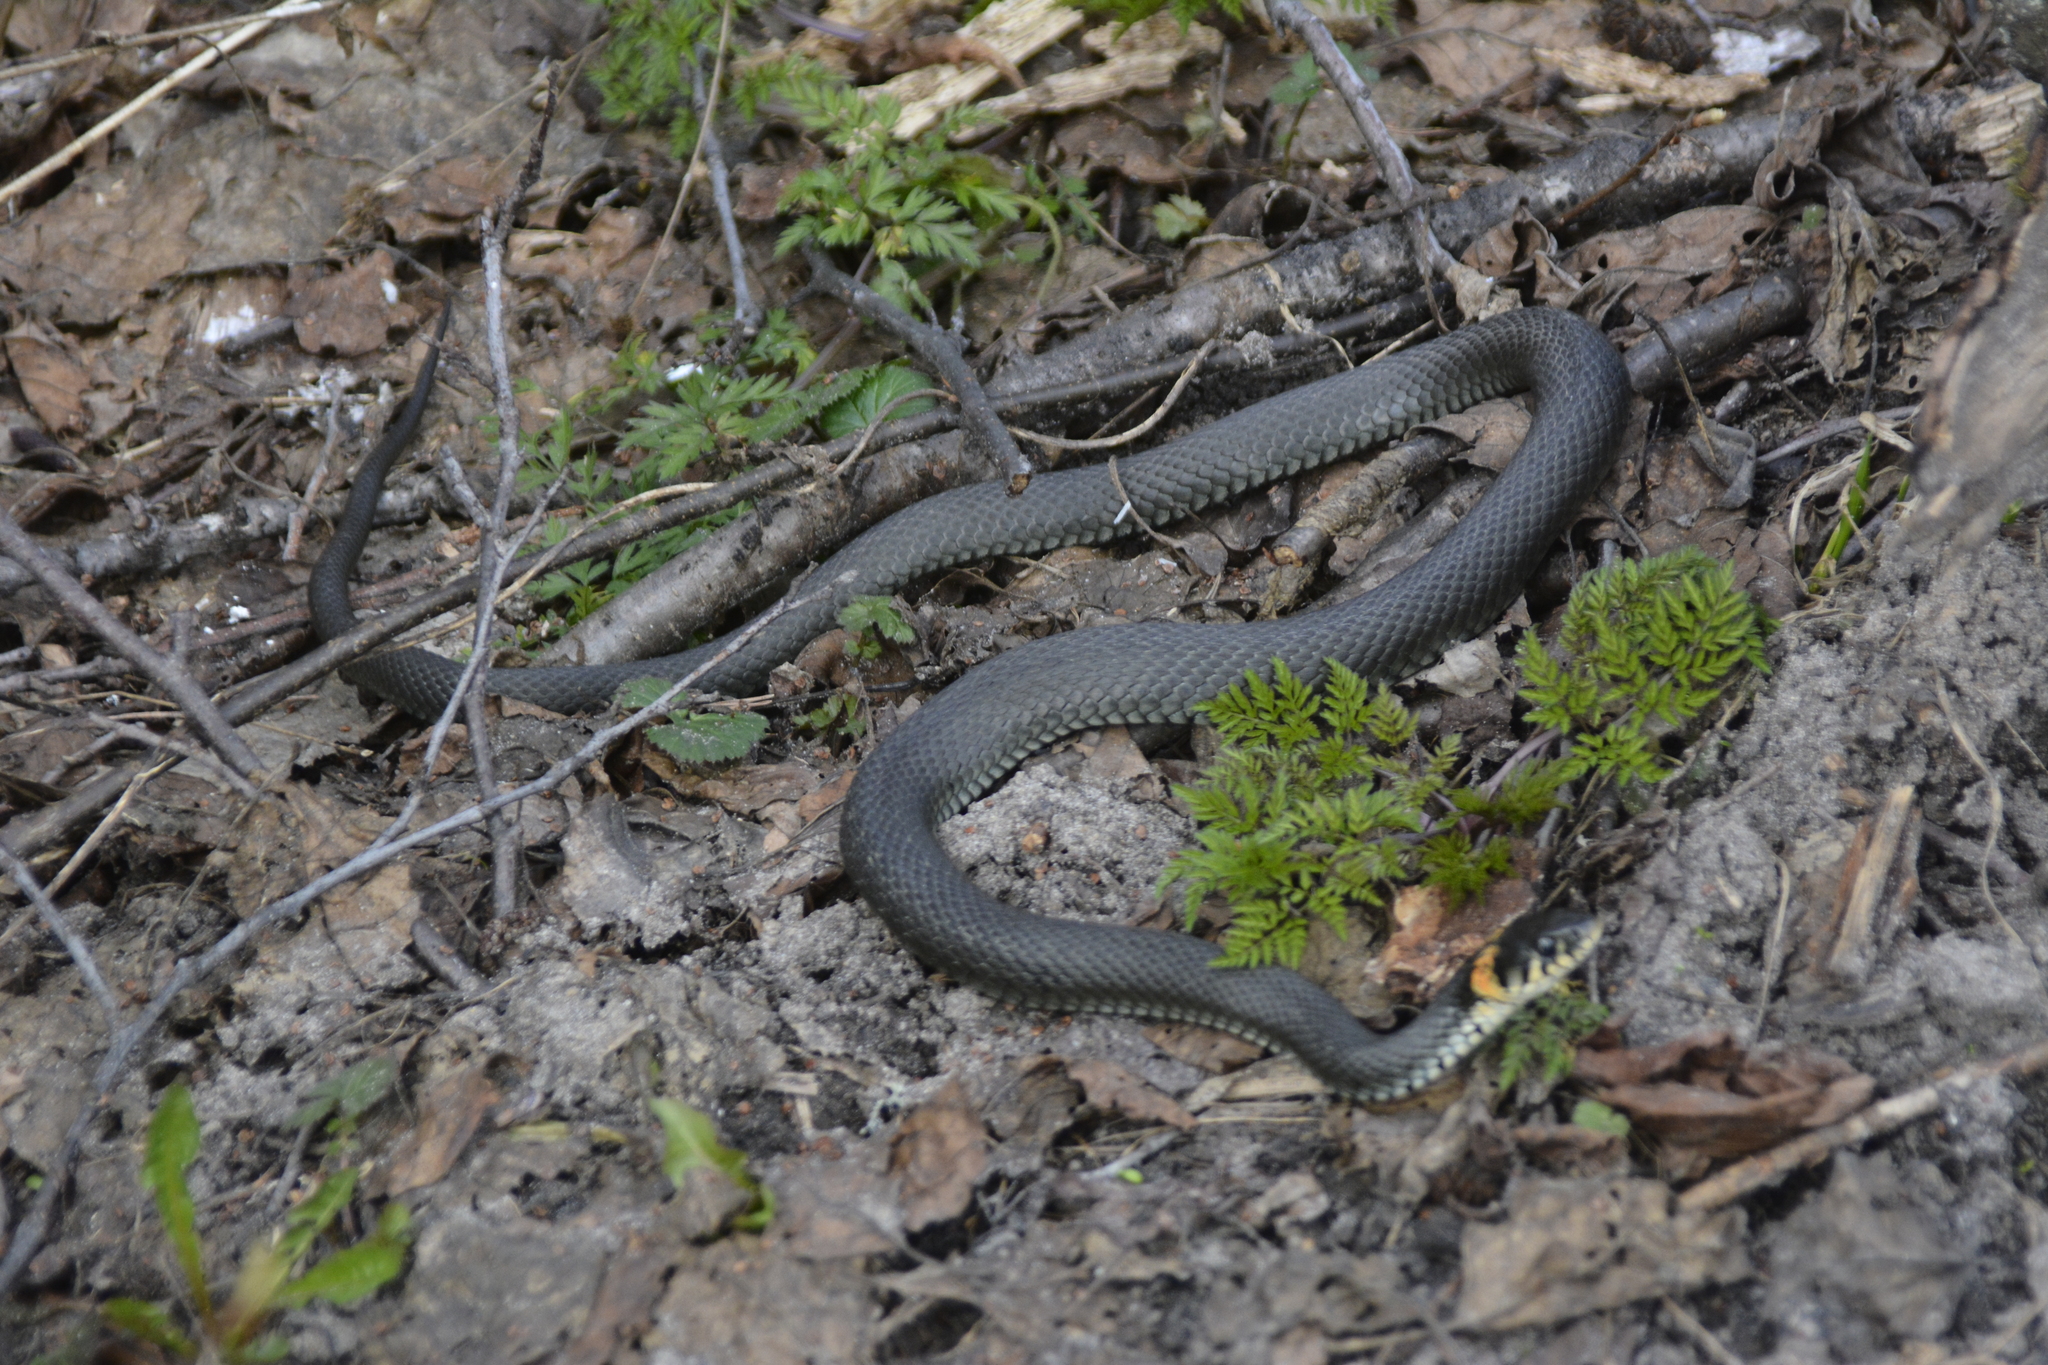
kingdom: Animalia
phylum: Chordata
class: Squamata
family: Colubridae
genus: Natrix
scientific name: Natrix natrix
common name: Grass snake
